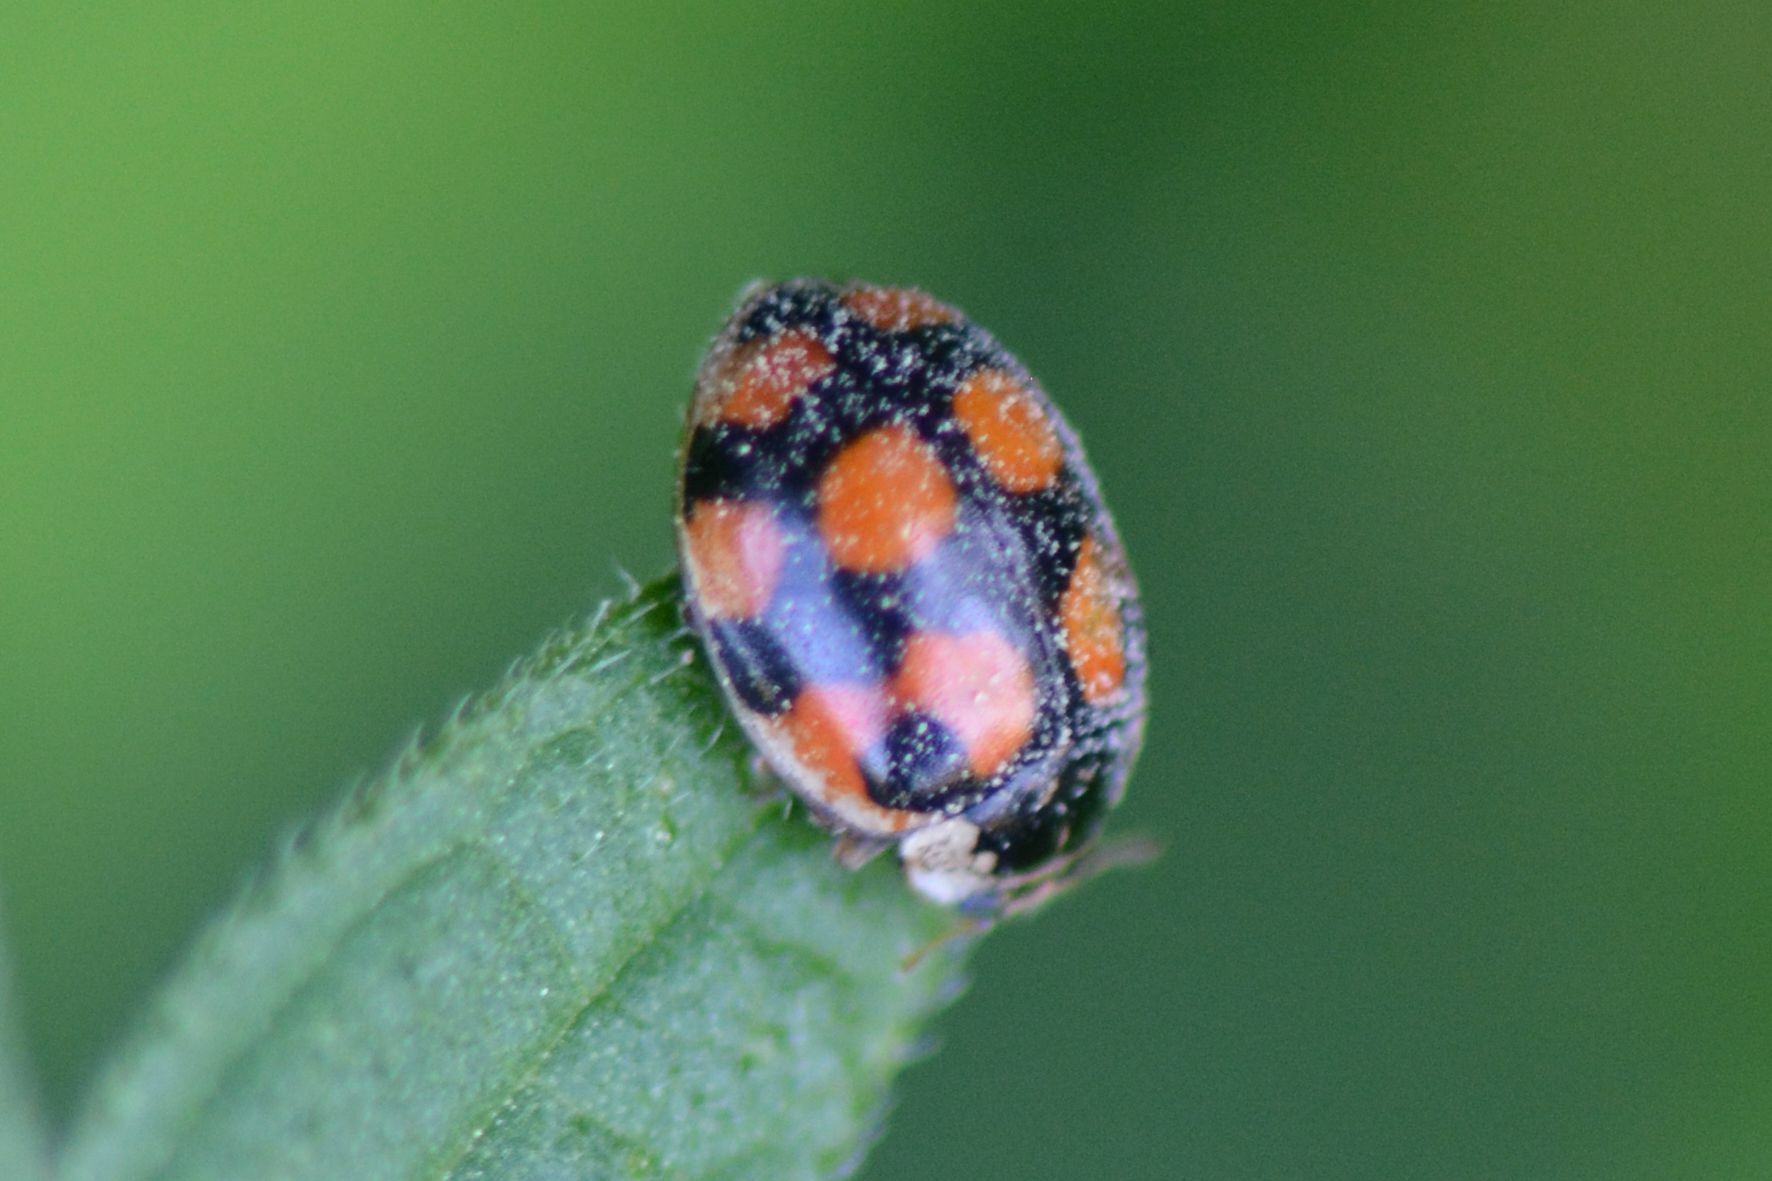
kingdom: Animalia
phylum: Arthropoda
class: Insecta
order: Coleoptera
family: Coccinellidae
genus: Adalia
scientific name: Adalia decempunctata
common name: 10-spot ladybird
